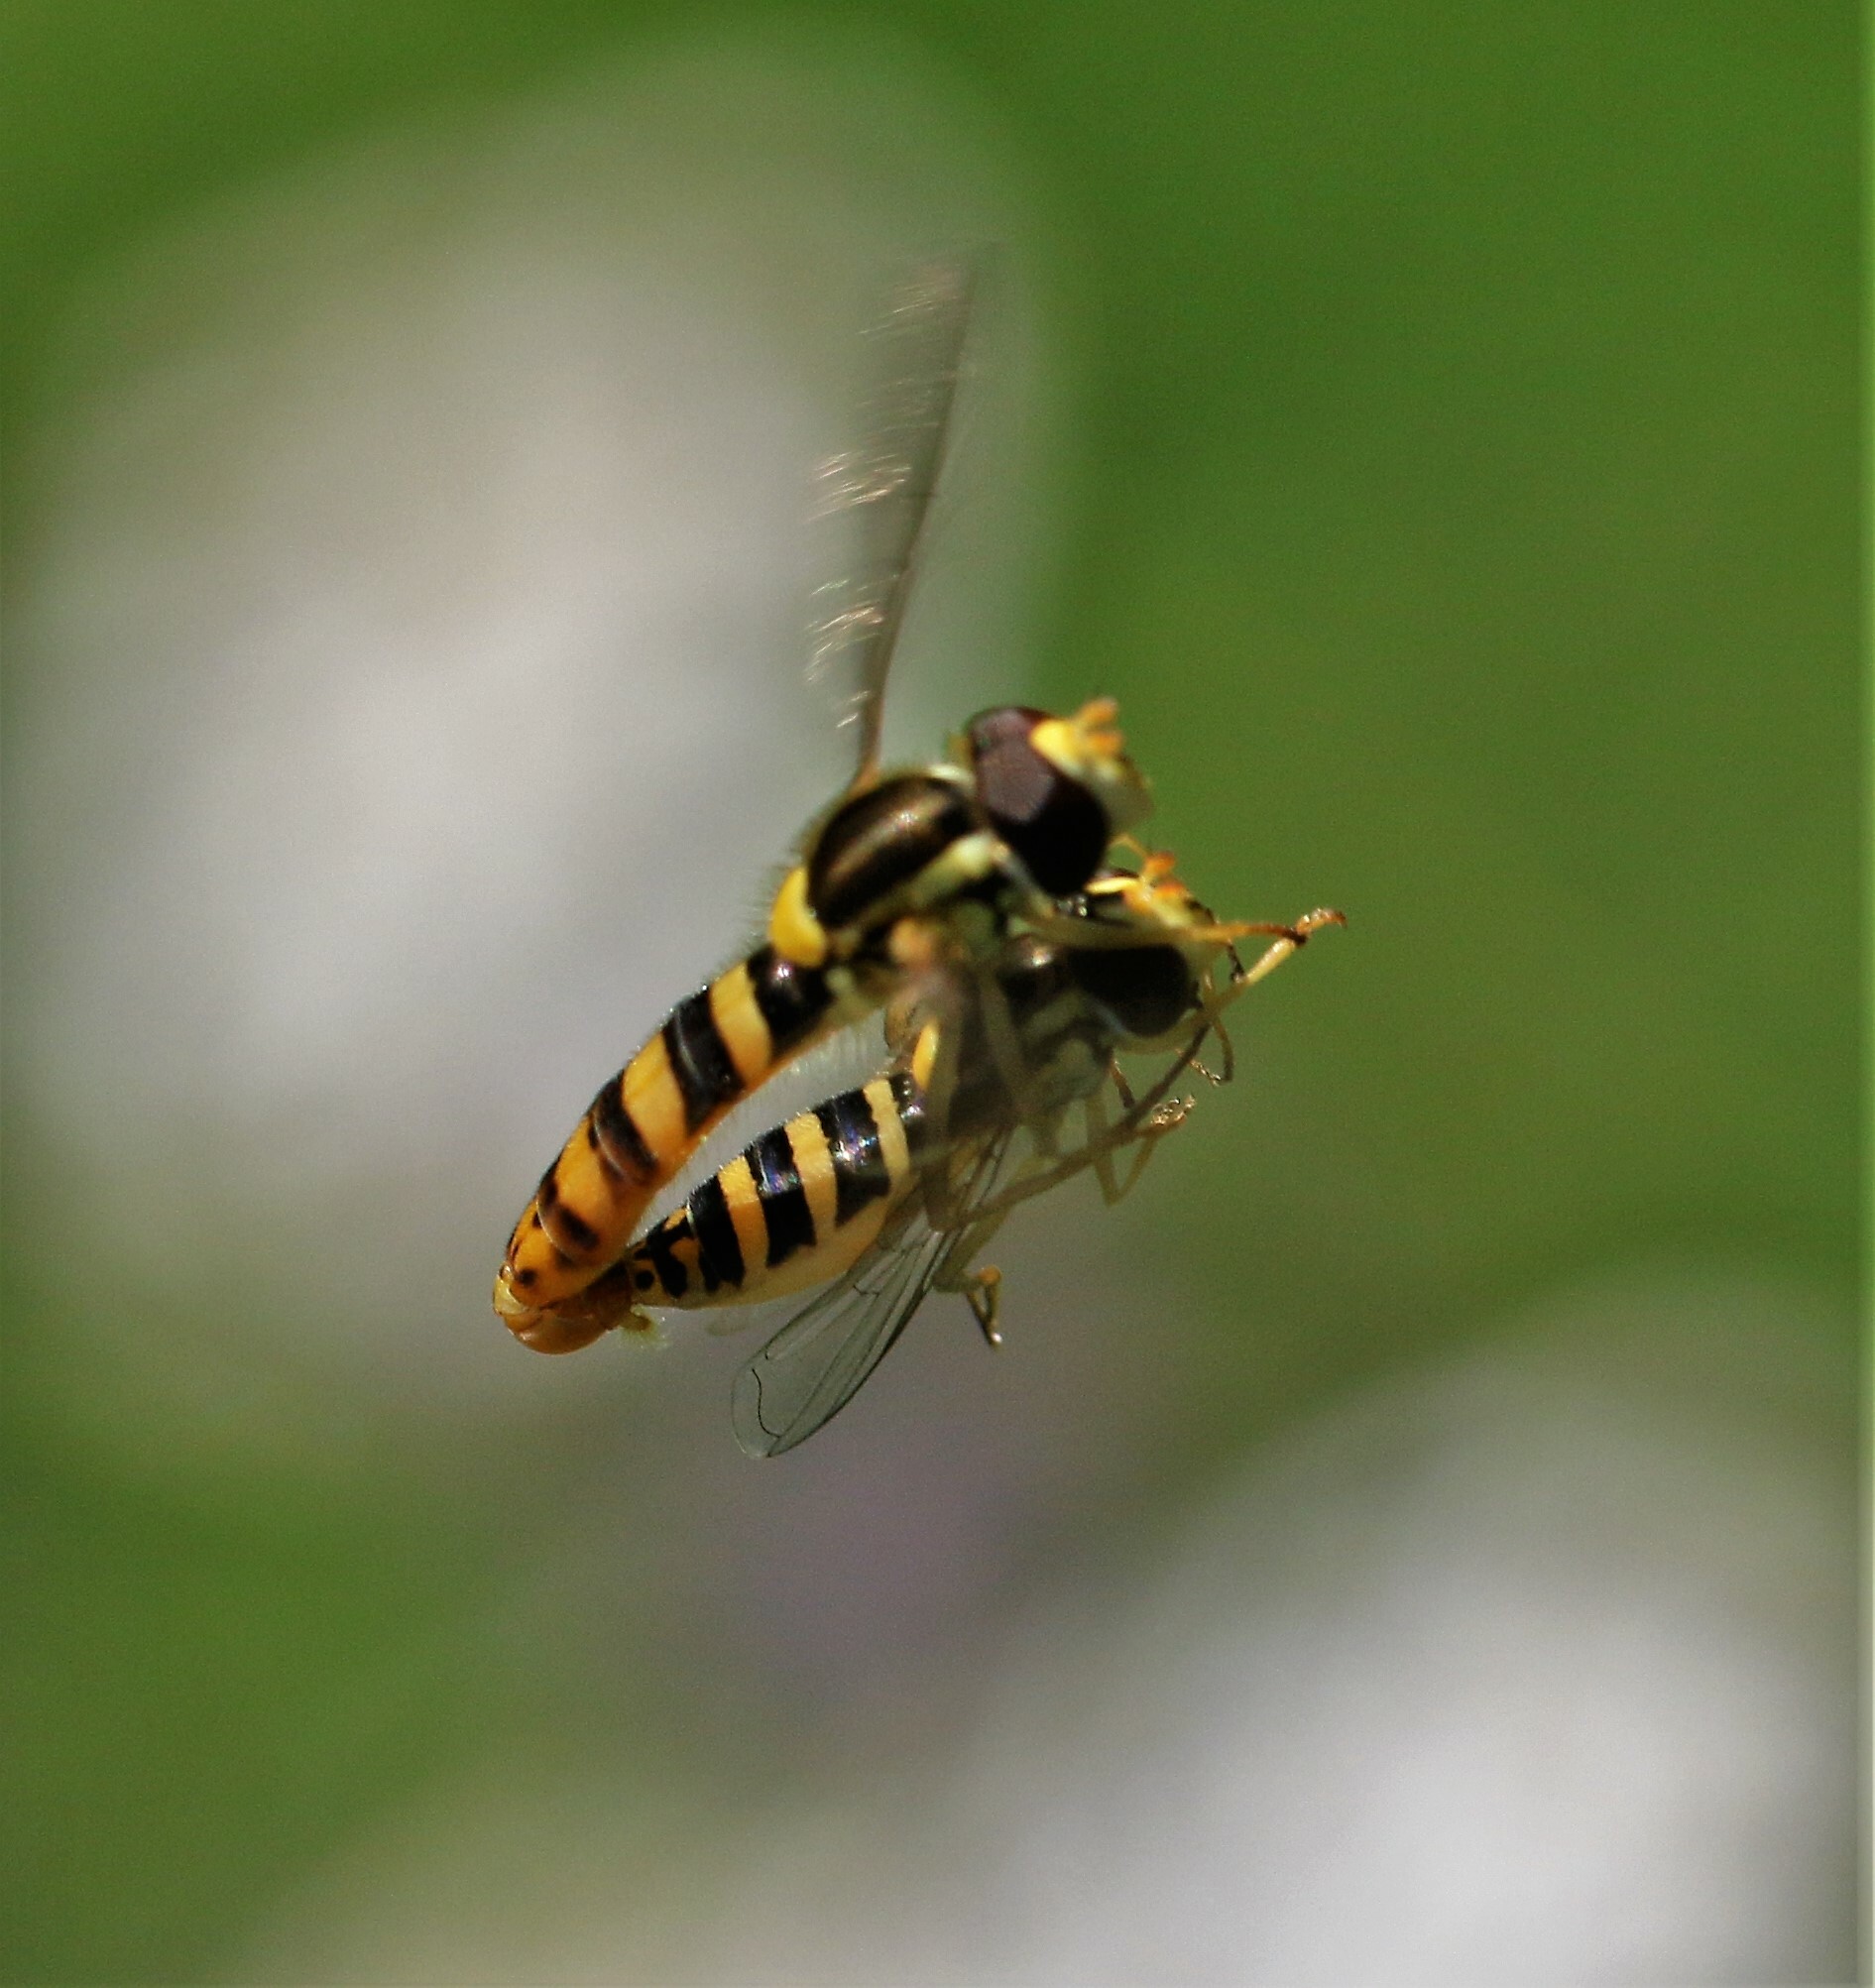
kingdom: Animalia
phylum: Arthropoda
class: Insecta
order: Diptera
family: Syrphidae
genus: Sphaerophoria
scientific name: Sphaerophoria philantha
